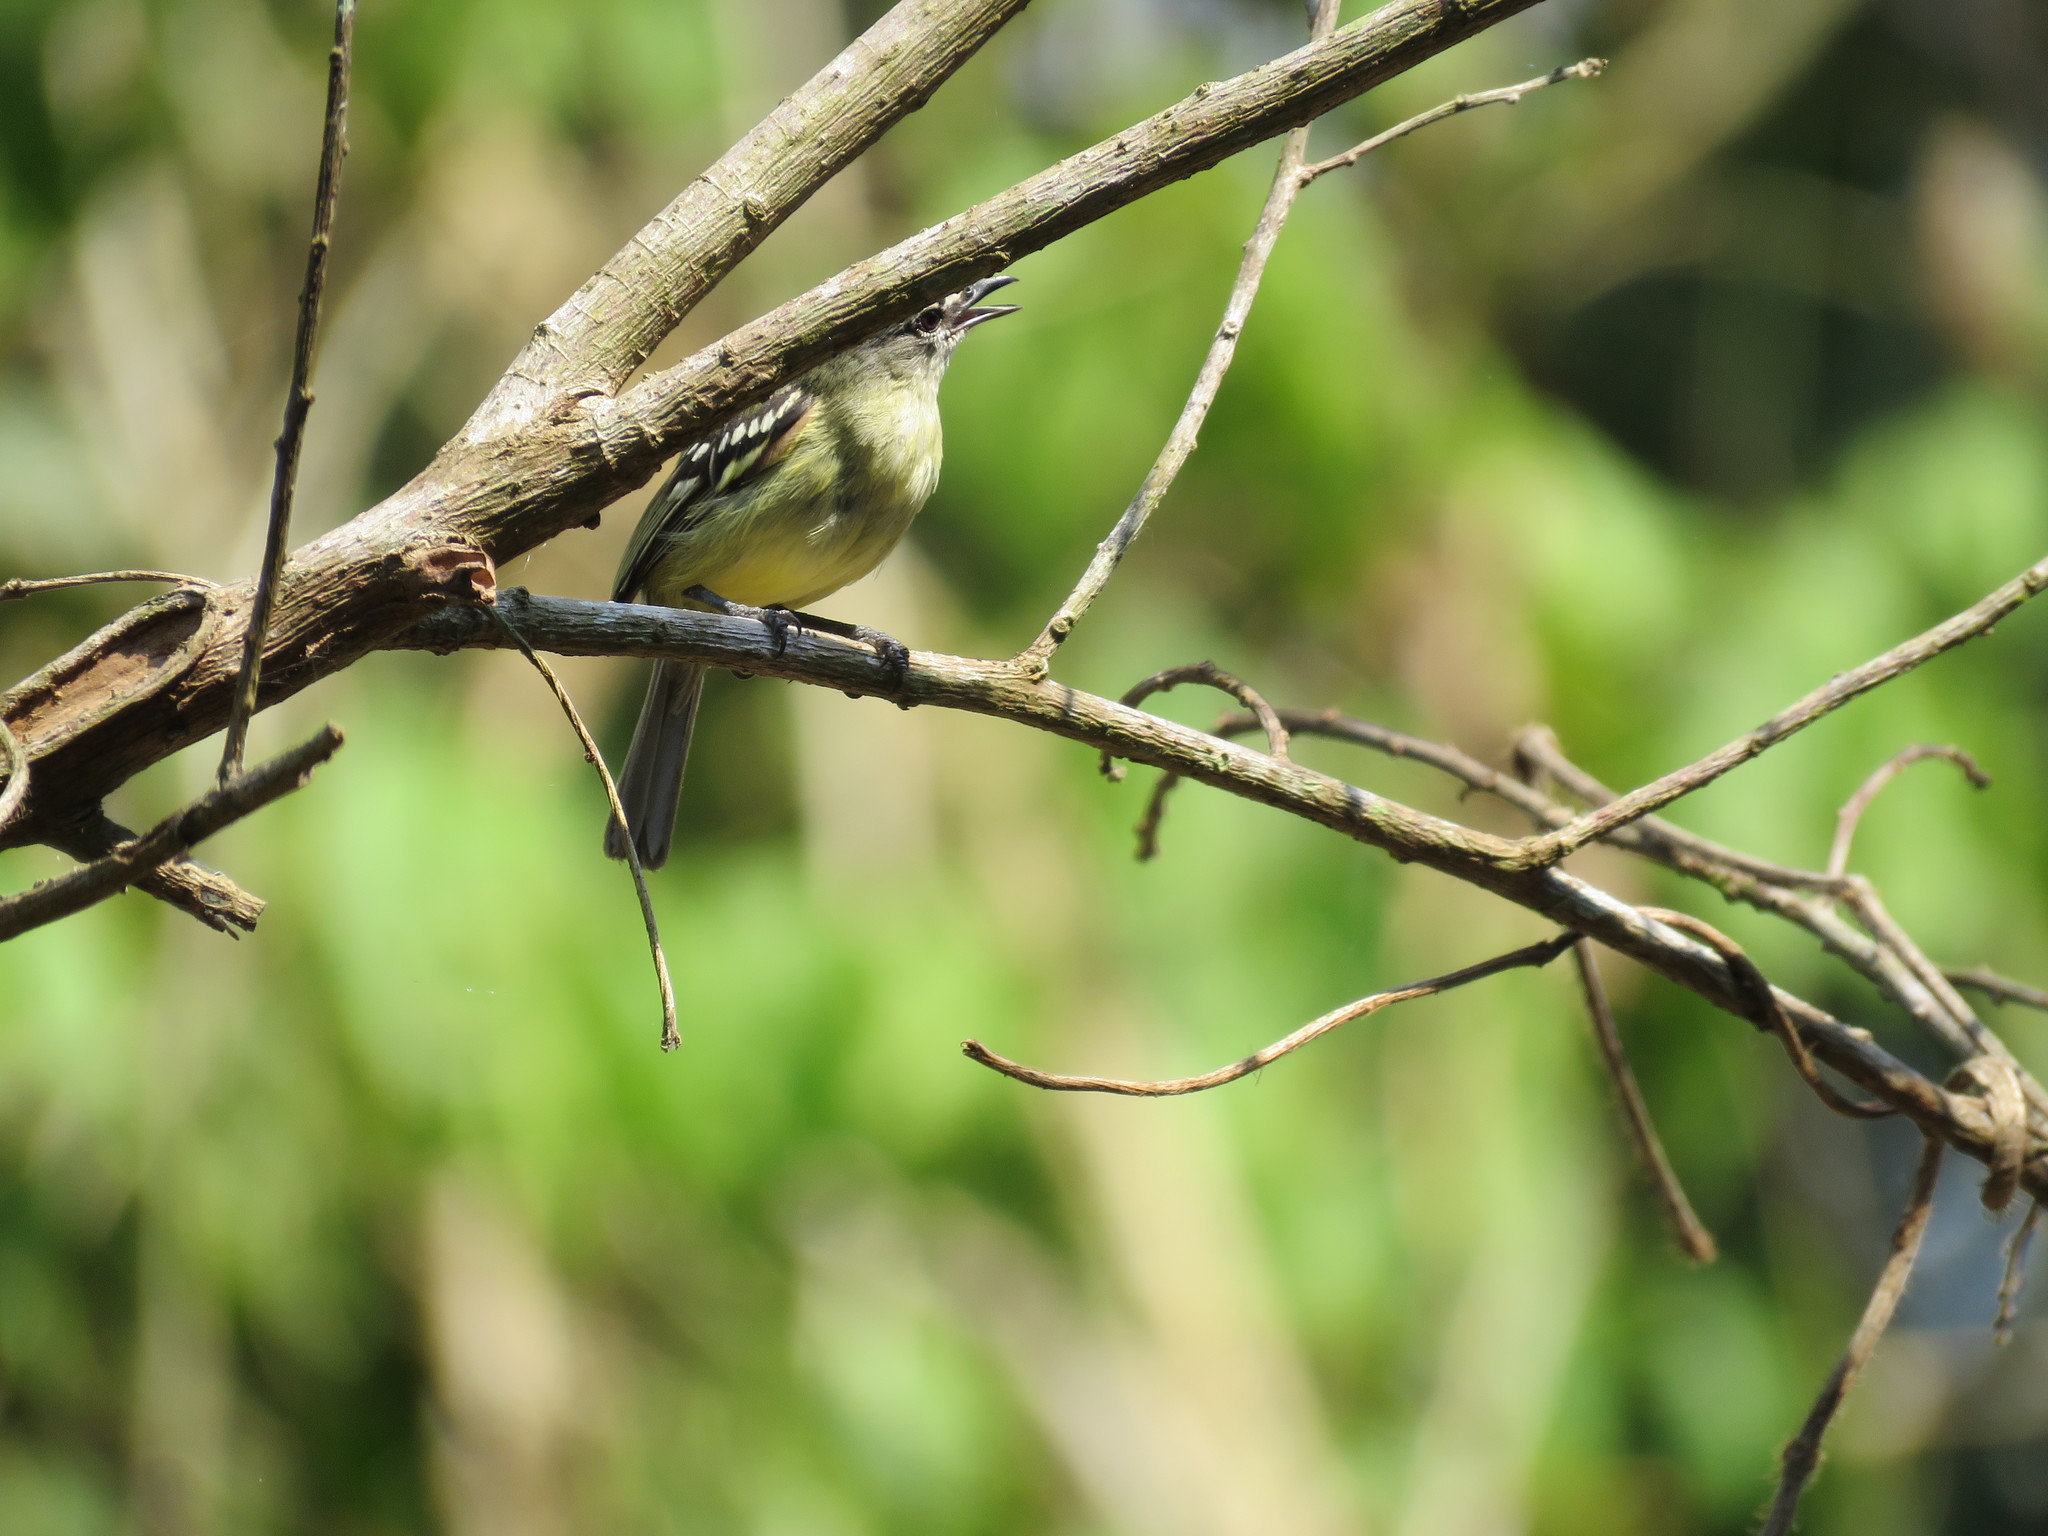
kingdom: Animalia
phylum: Chordata
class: Aves
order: Passeriformes
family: Tyrannidae
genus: Ornithion
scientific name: Ornithion inerme
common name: White-lored tyrannulet
